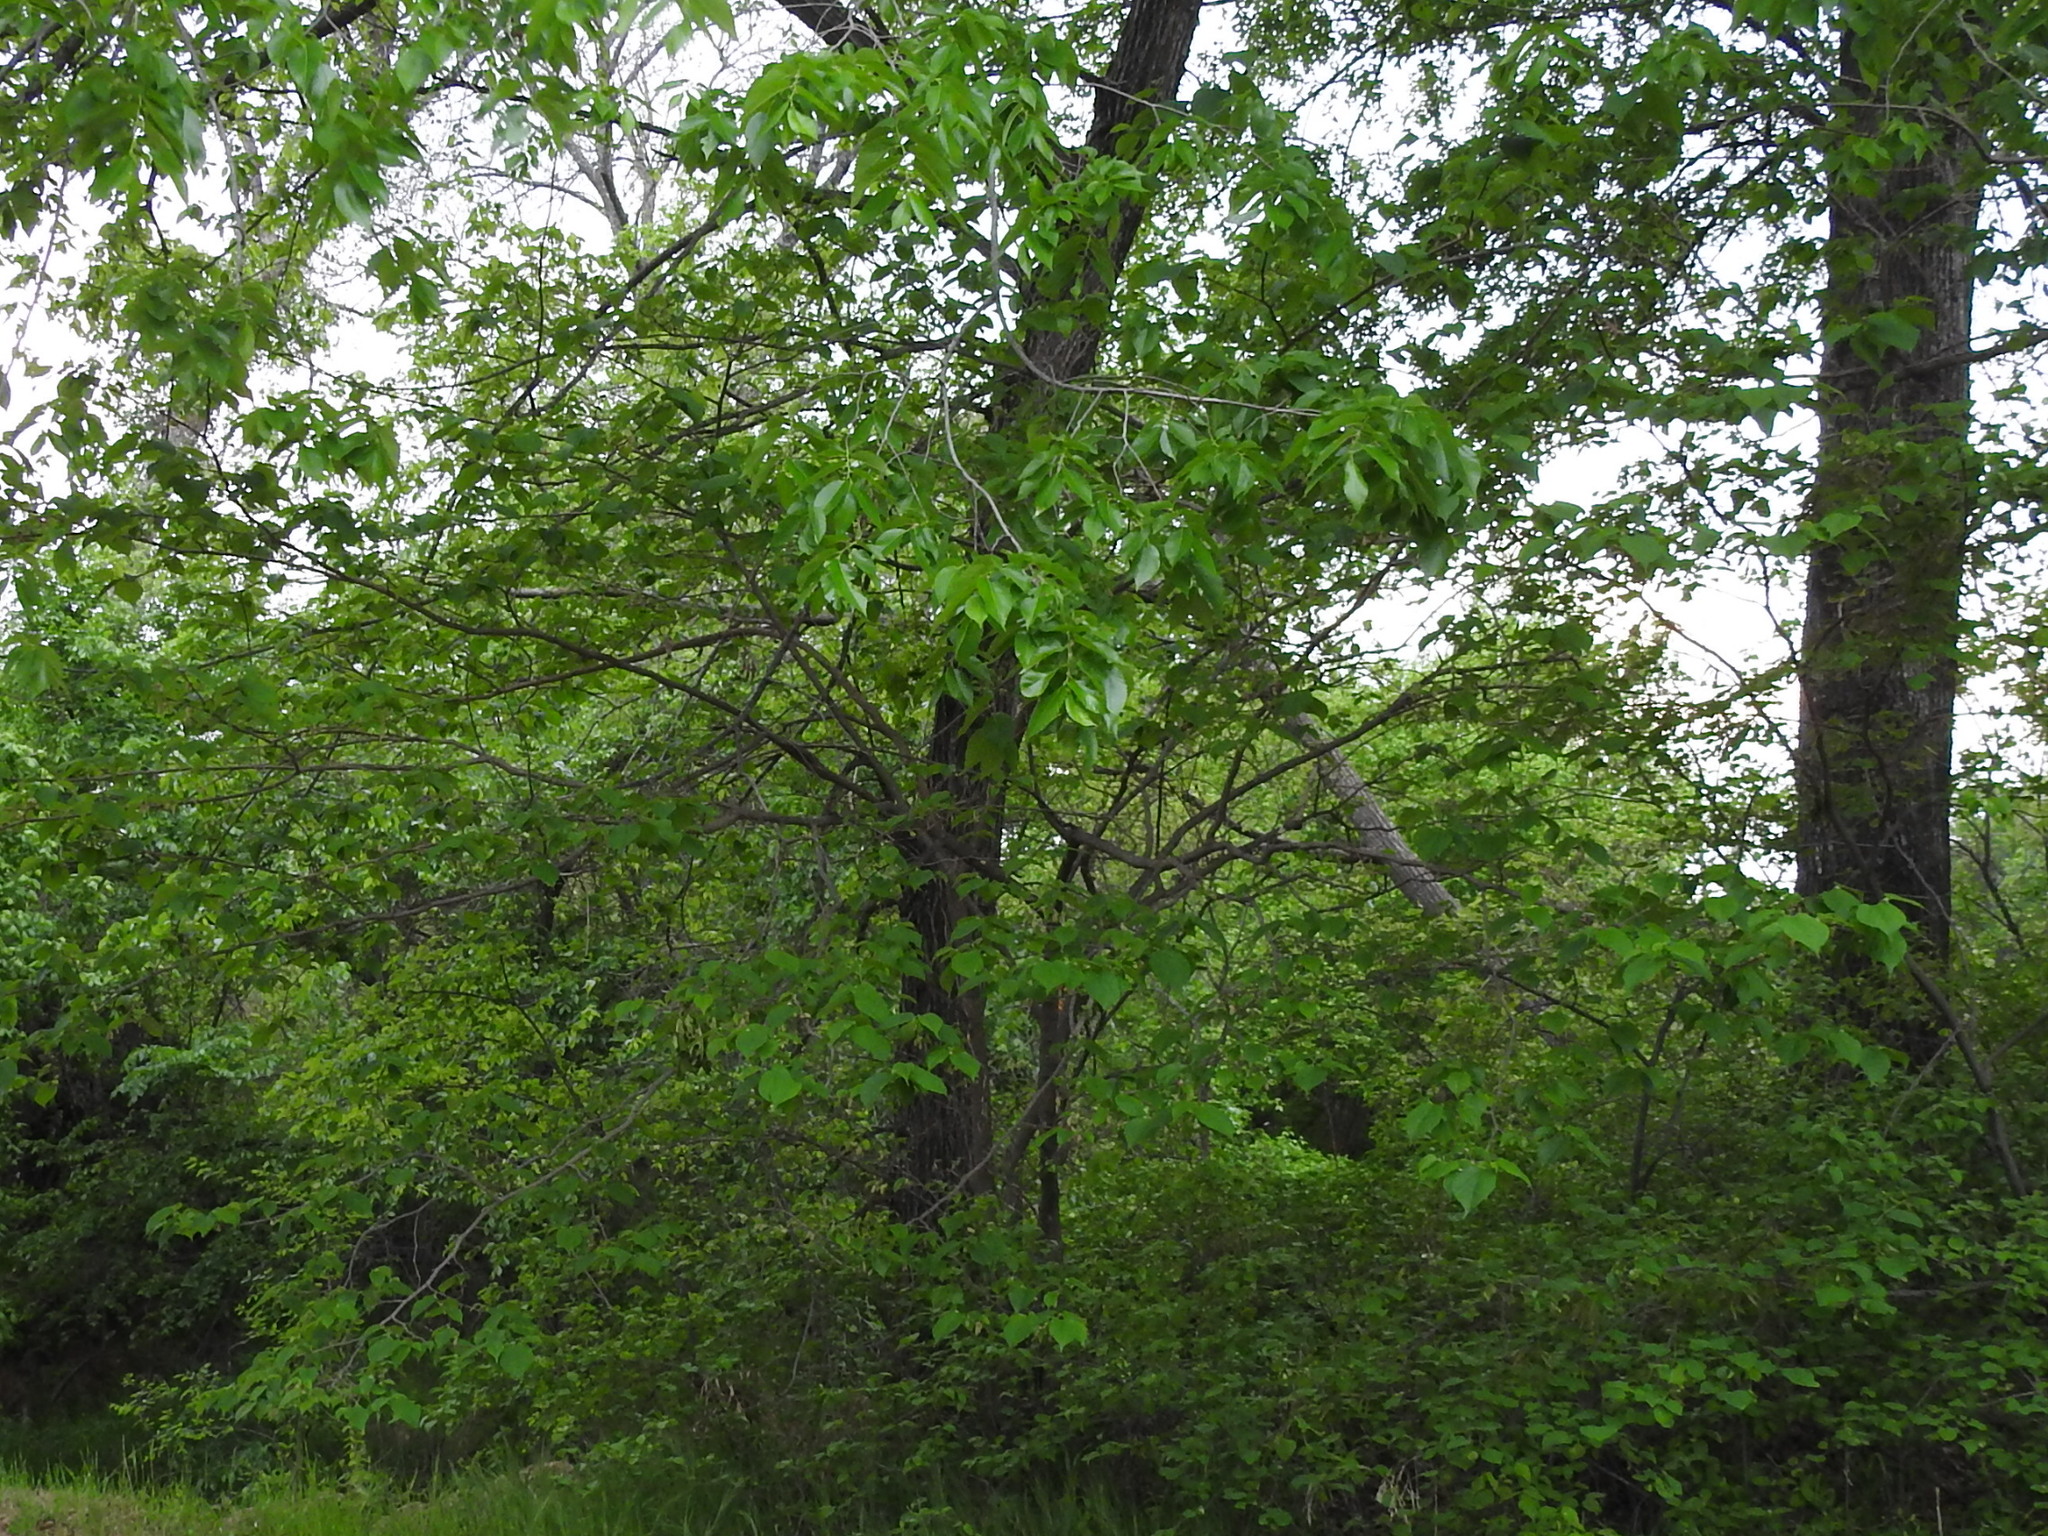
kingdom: Plantae
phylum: Tracheophyta
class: Magnoliopsida
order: Rosales
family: Moraceae
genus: Morus
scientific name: Morus rubra
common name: Red mulberry
